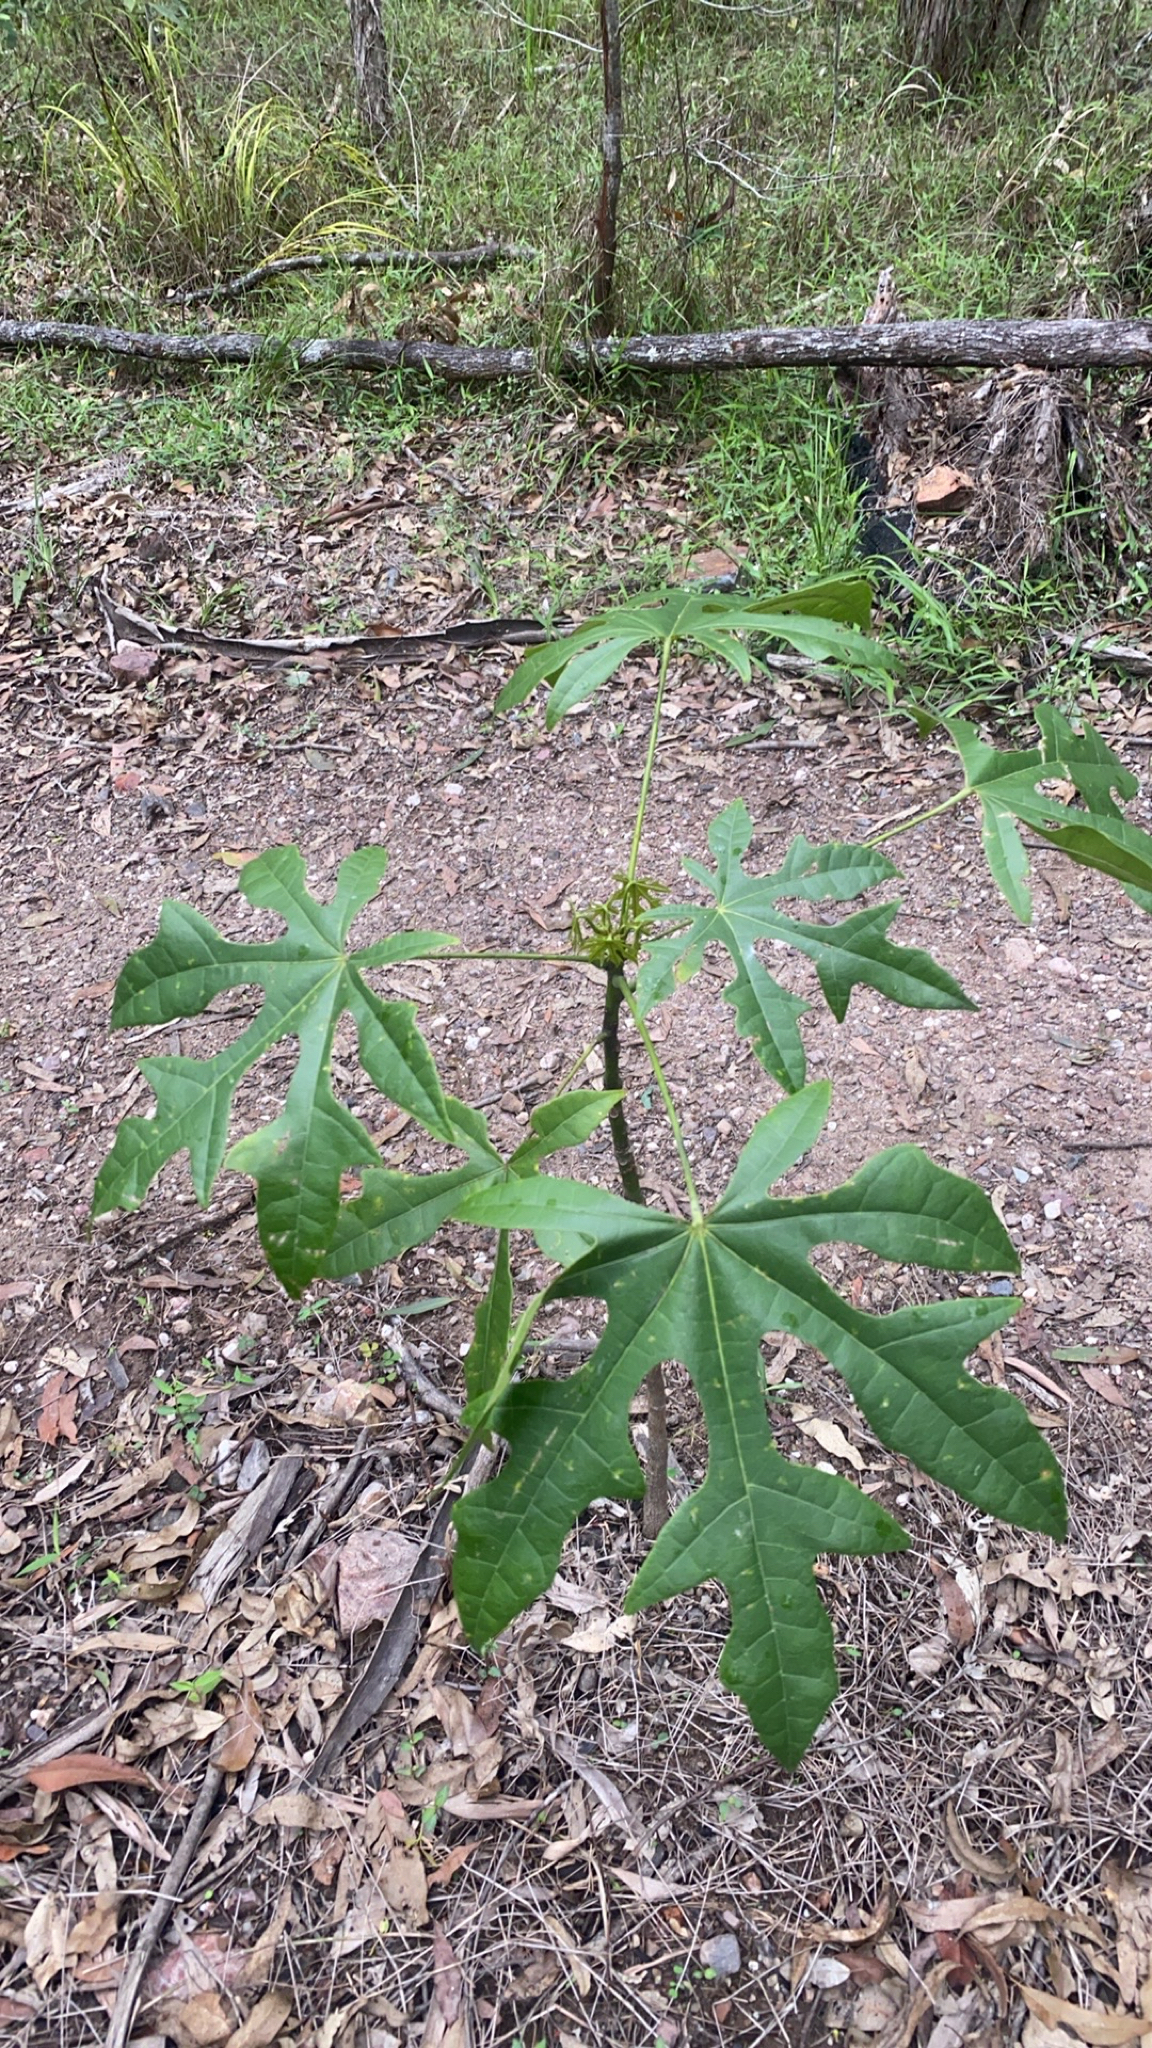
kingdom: Plantae
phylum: Tracheophyta
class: Magnoliopsida
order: Malvales
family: Malvaceae
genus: Brachychiton
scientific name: Brachychiton acerifolius
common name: Illawarra flame tree
